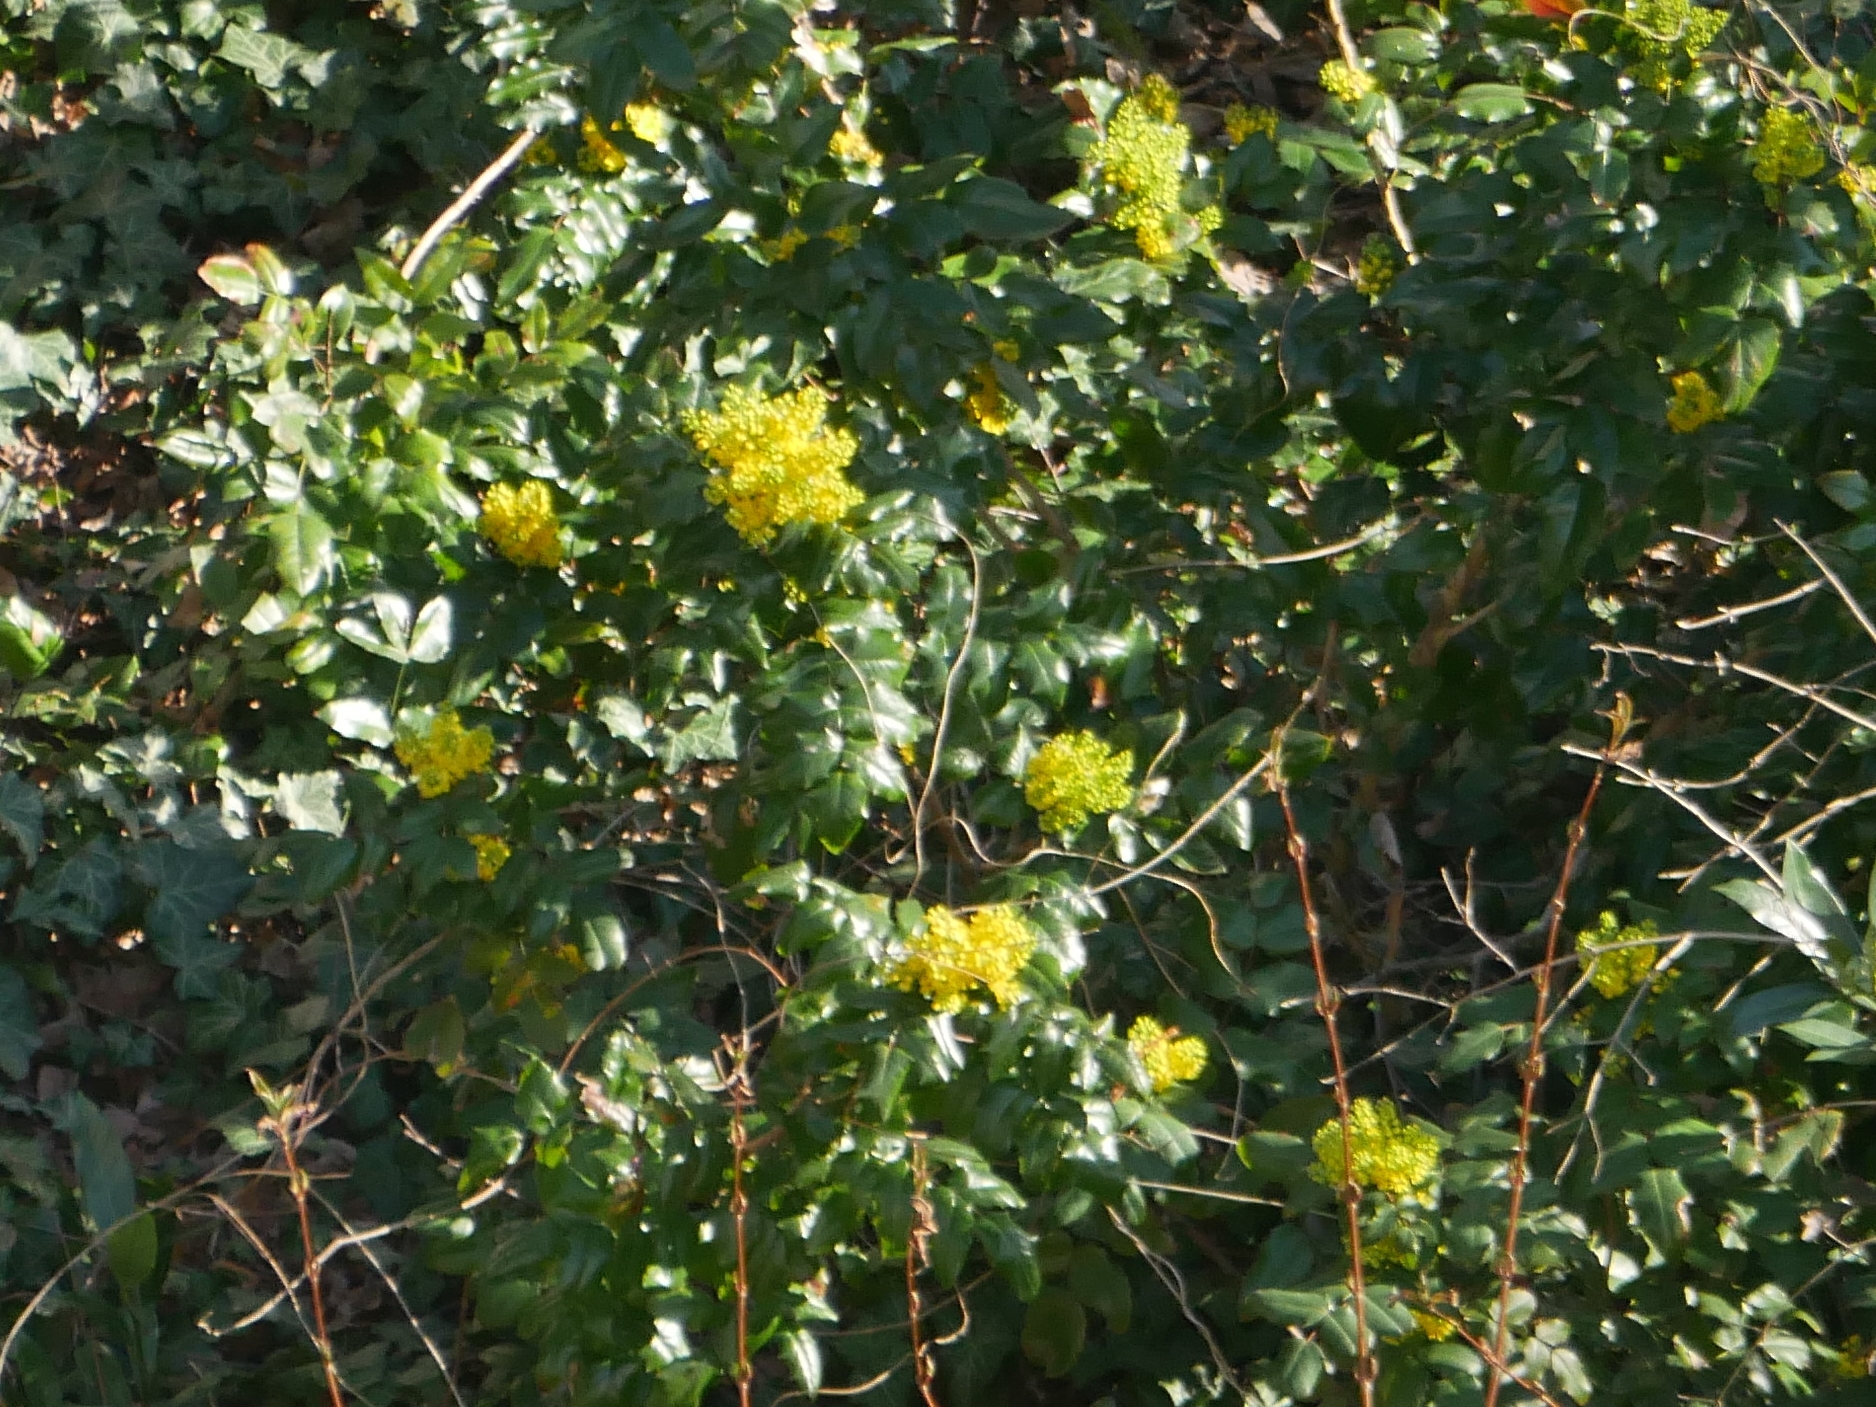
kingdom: Plantae
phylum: Tracheophyta
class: Magnoliopsida
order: Ranunculales
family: Berberidaceae
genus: Mahonia
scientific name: Mahonia aquifolium
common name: Oregon-grape
